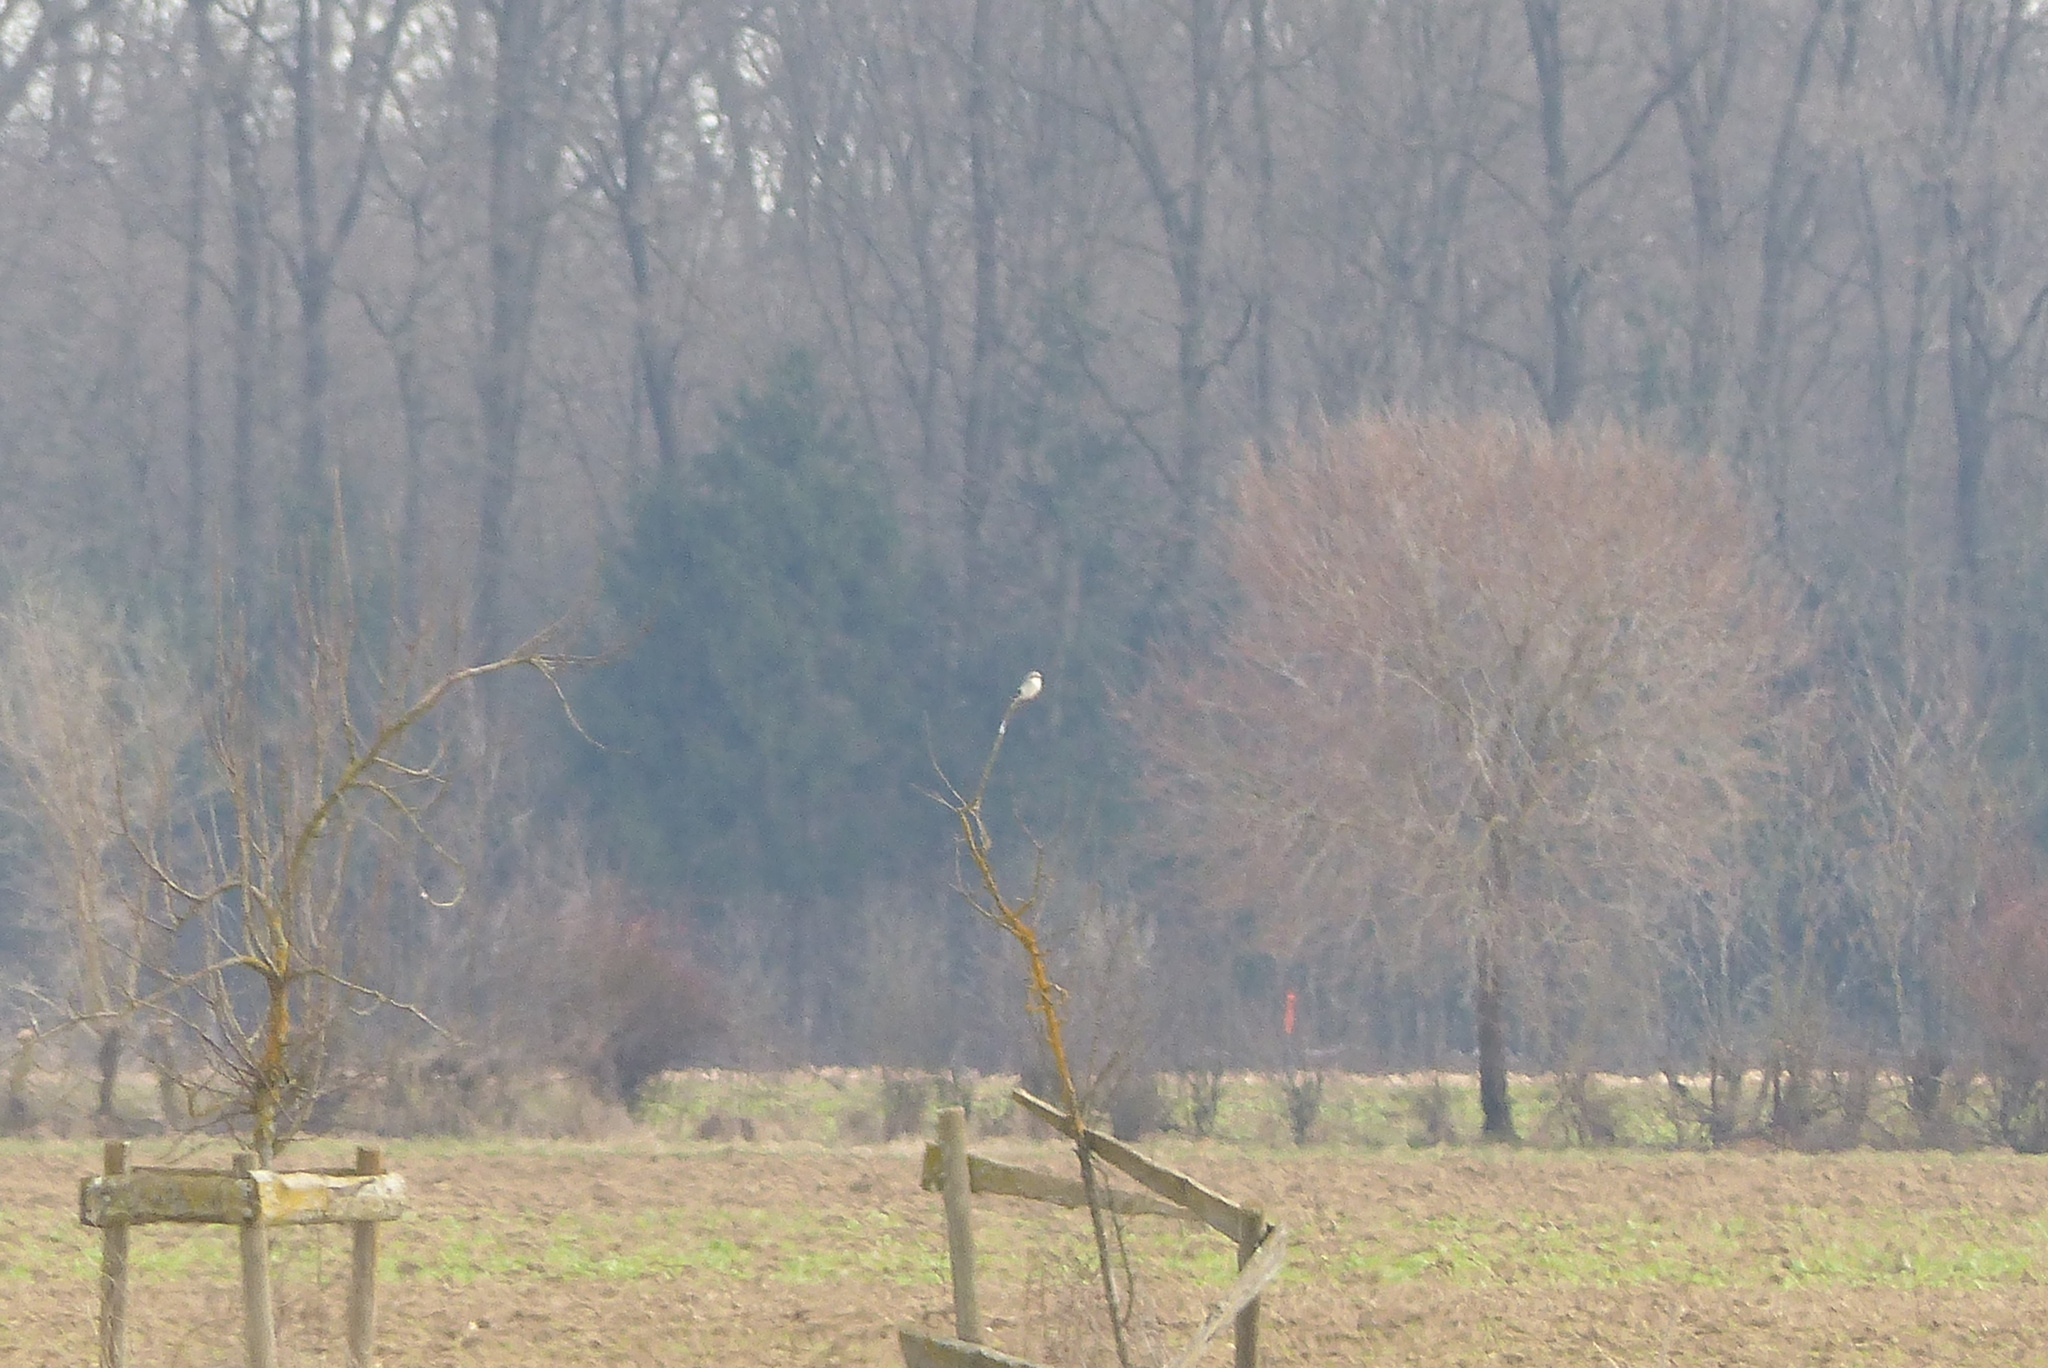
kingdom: Animalia
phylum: Chordata
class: Aves
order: Passeriformes
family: Laniidae
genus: Lanius
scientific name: Lanius excubitor
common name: Great grey shrike
